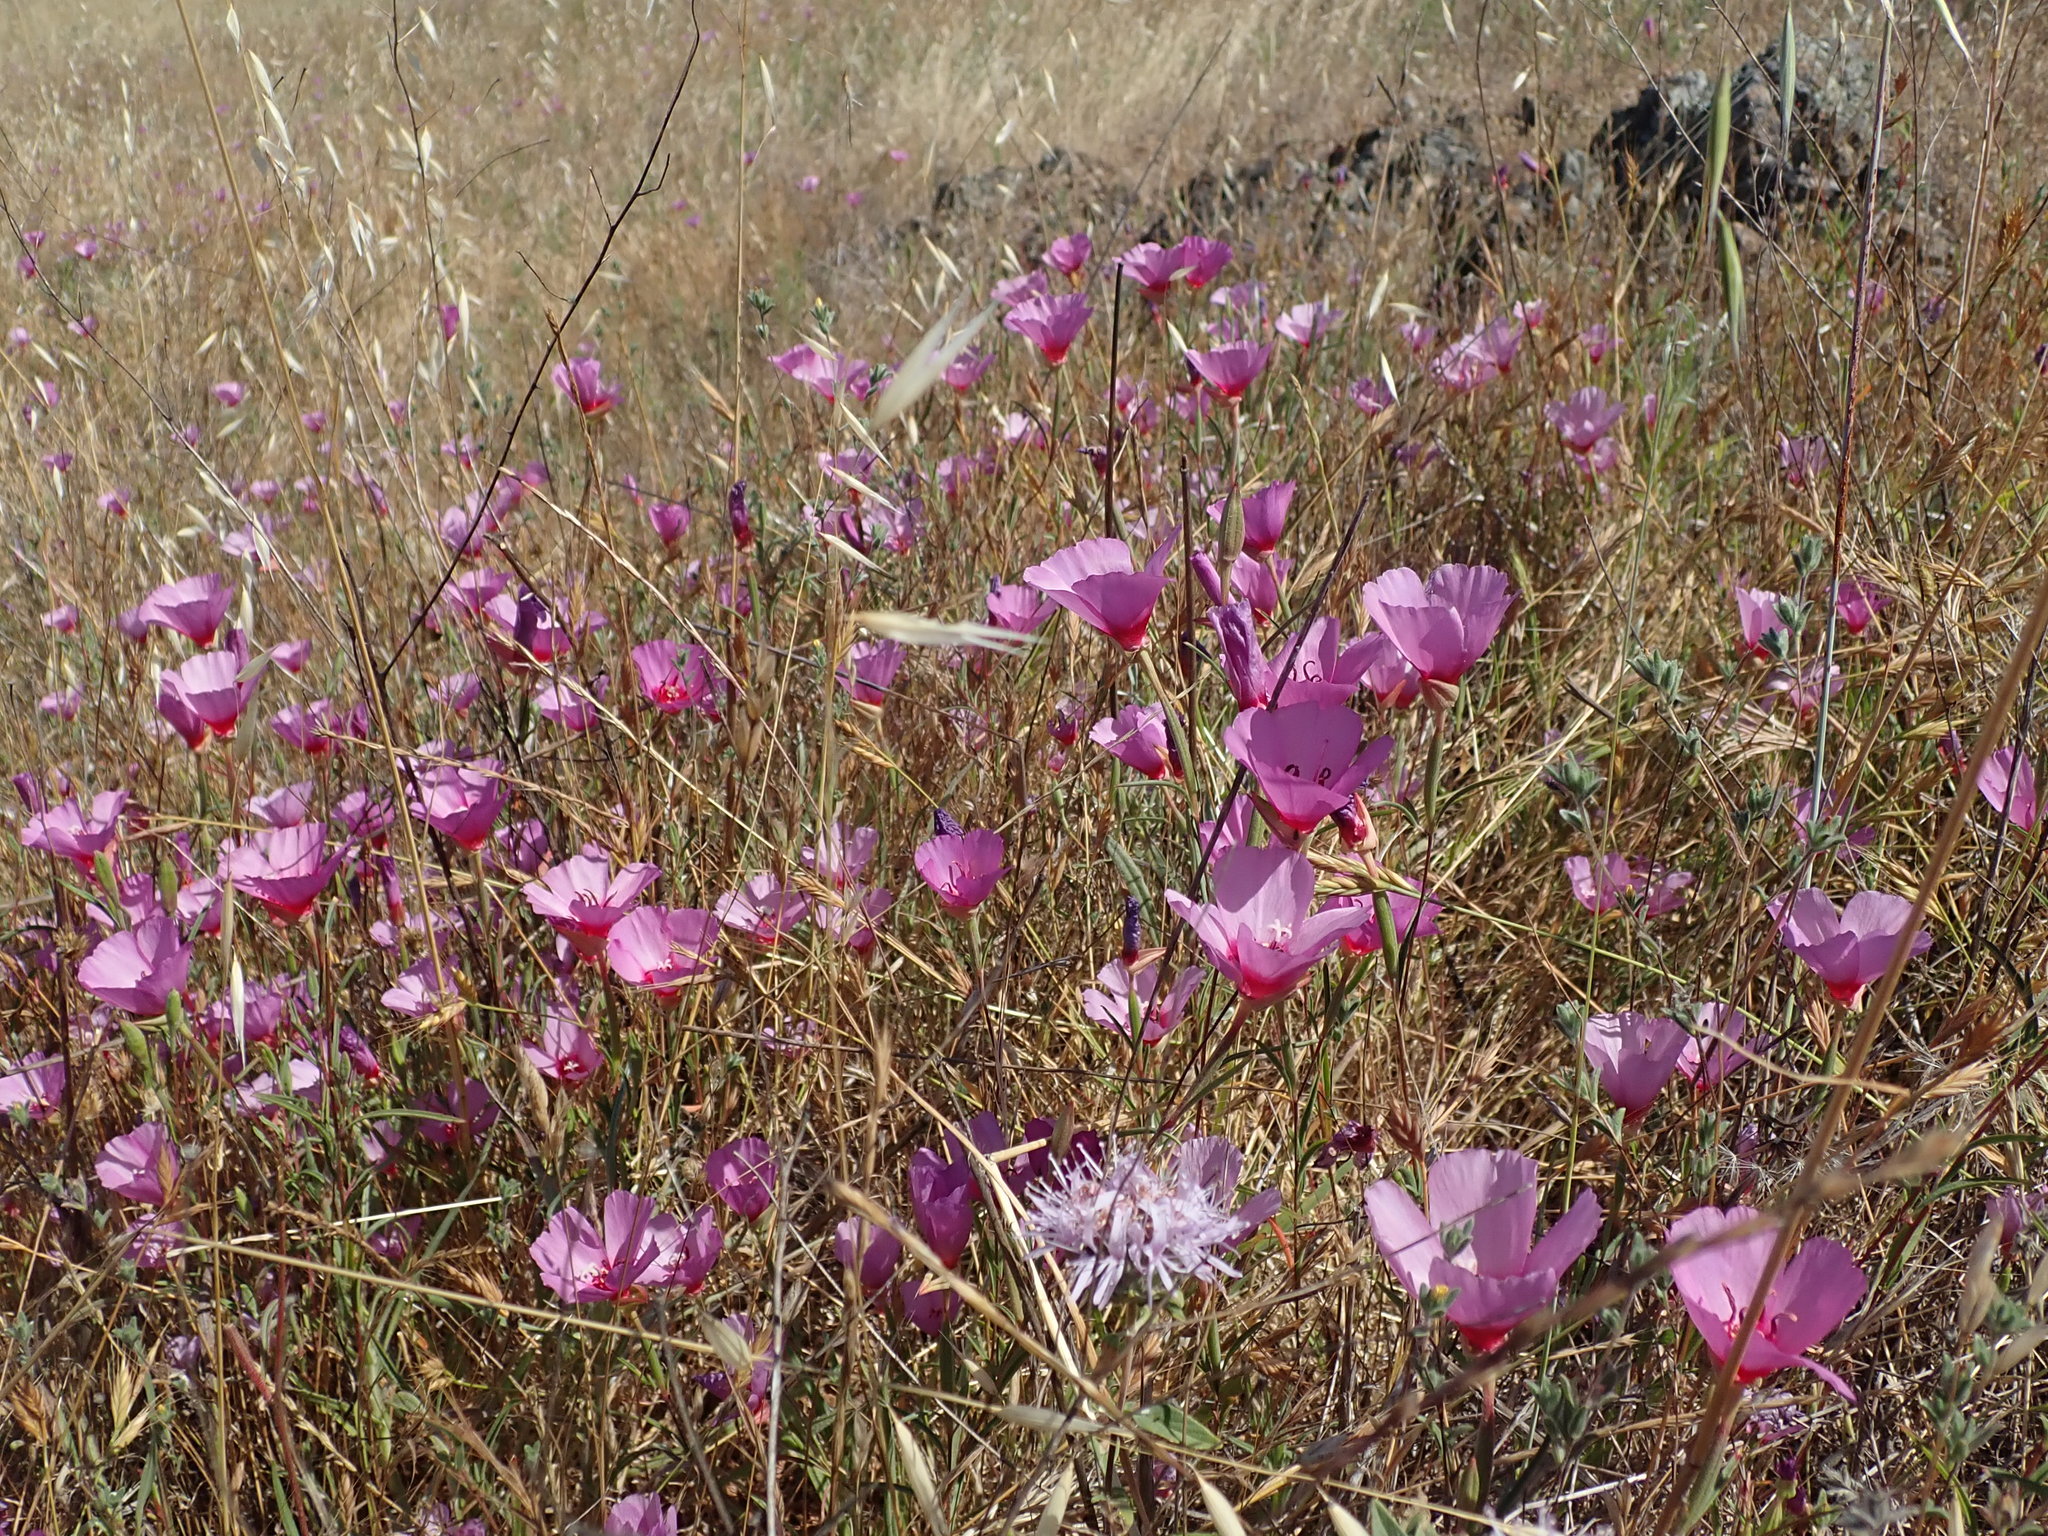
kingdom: Plantae
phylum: Tracheophyta
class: Magnoliopsida
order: Myrtales
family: Onagraceae
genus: Clarkia
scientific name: Clarkia rubicunda
